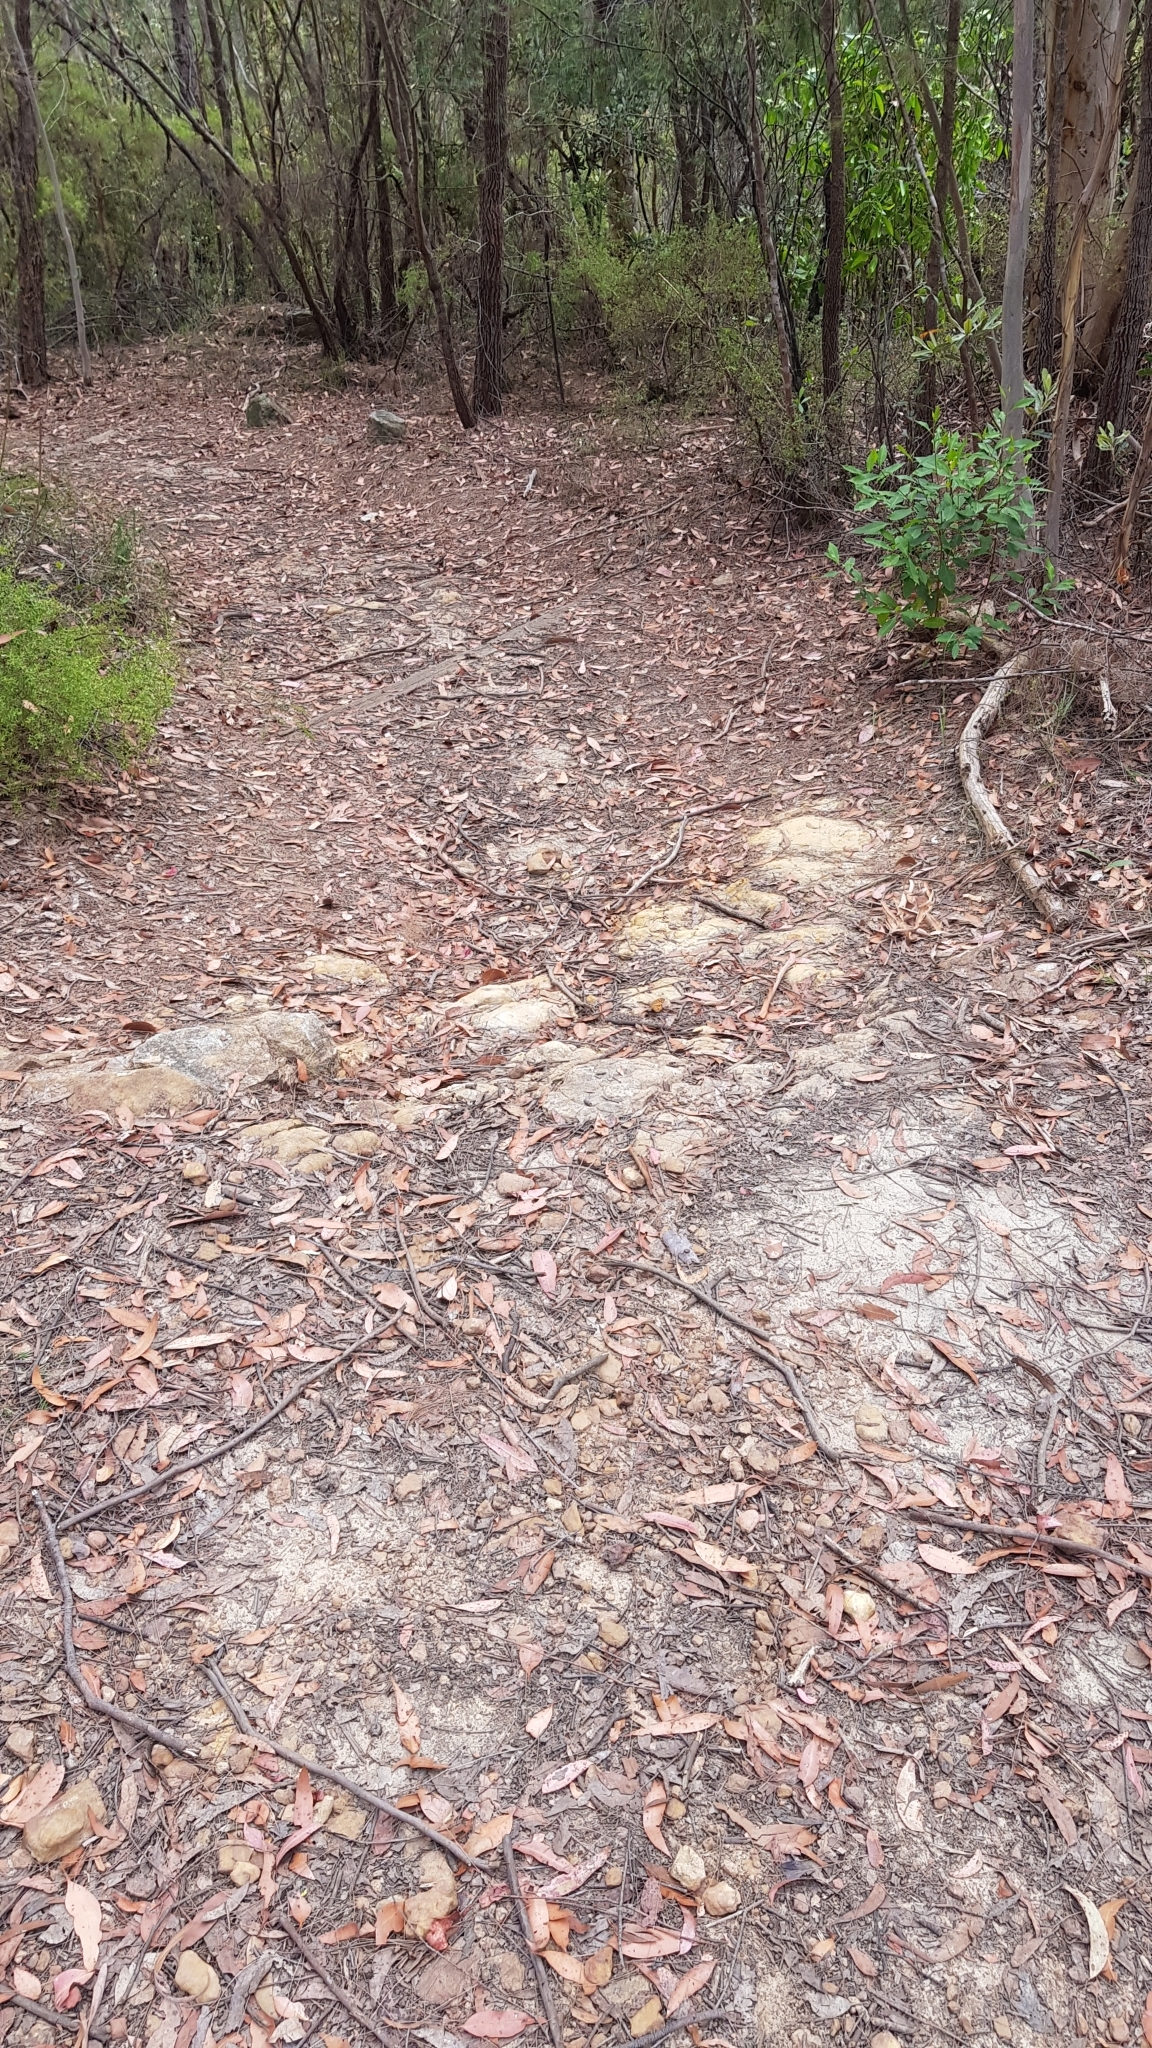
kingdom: Animalia
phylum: Arthropoda
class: Insecta
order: Lepidoptera
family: Nymphalidae
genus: Heteronympha
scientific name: Heteronympha merope
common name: Common brown
